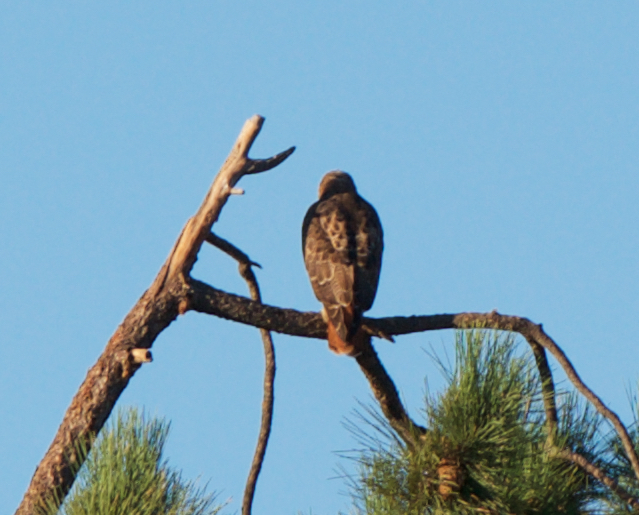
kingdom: Animalia
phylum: Chordata
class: Aves
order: Accipitriformes
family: Accipitridae
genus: Buteo
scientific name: Buteo jamaicensis
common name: Red-tailed hawk
